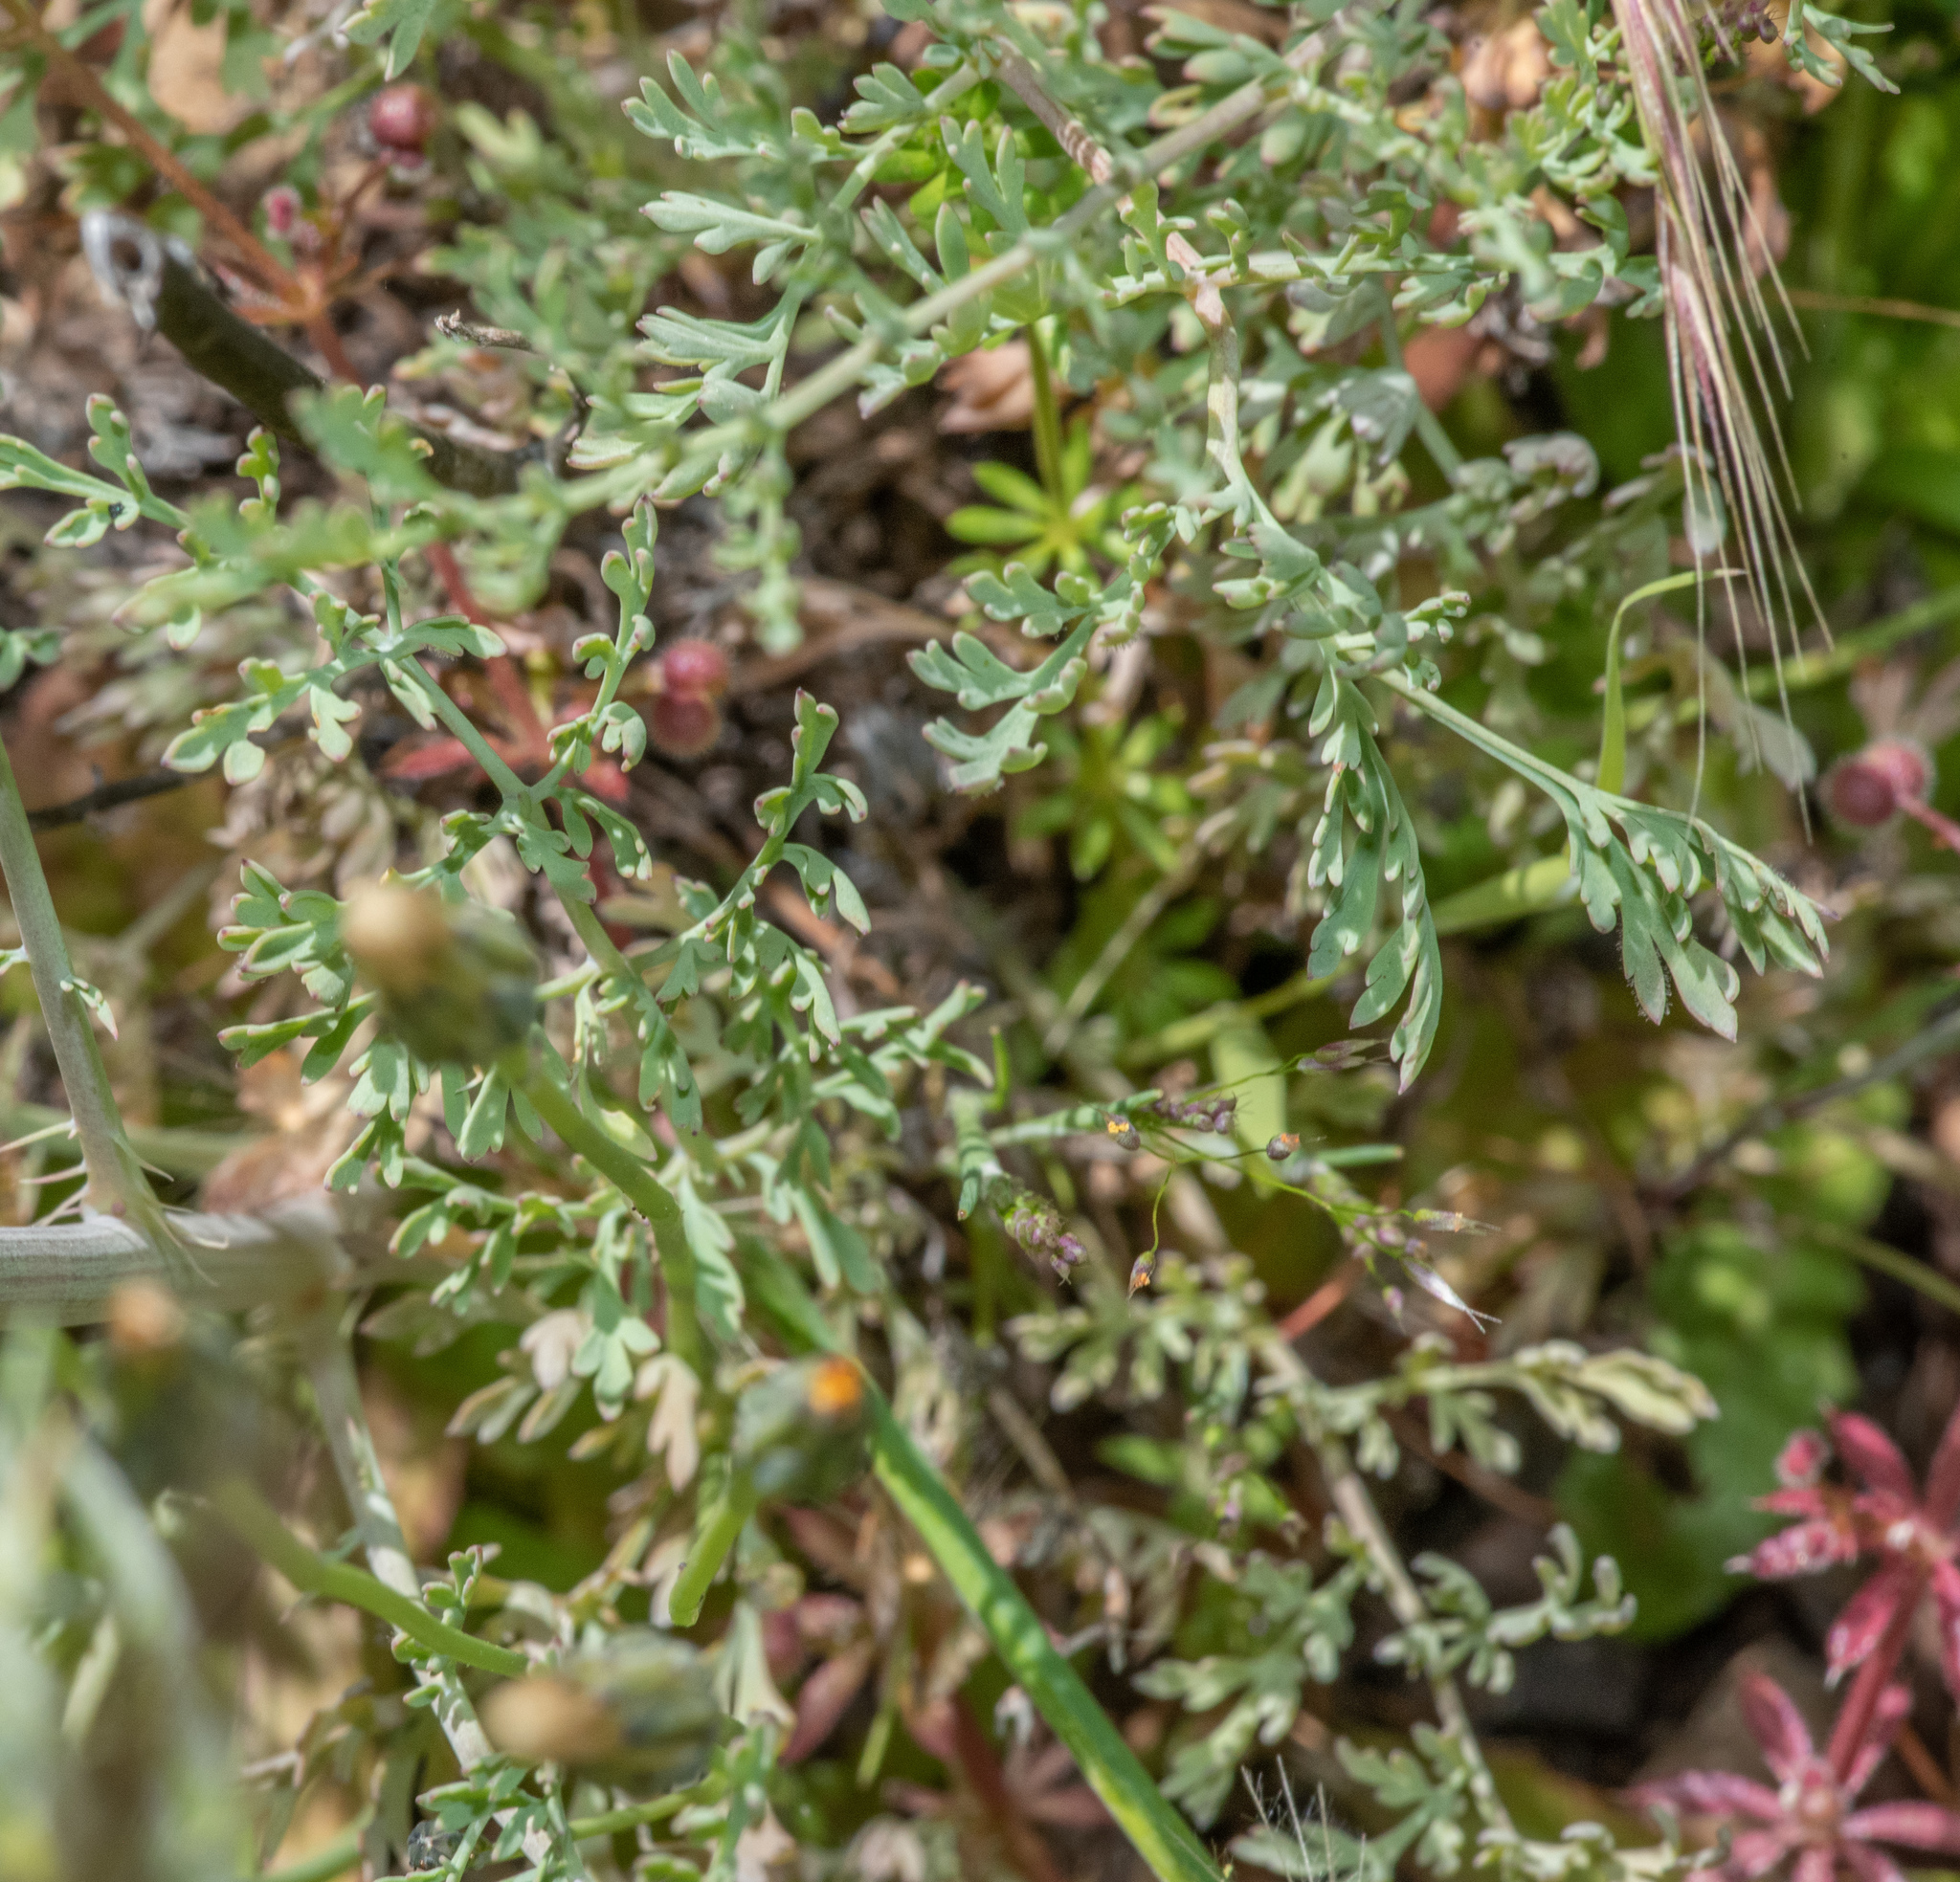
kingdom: Plantae
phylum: Tracheophyta
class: Magnoliopsida
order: Ranunculales
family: Papaveraceae
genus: Ehrendorferia
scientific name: Ehrendorferia chrysantha
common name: Golden eardrops
